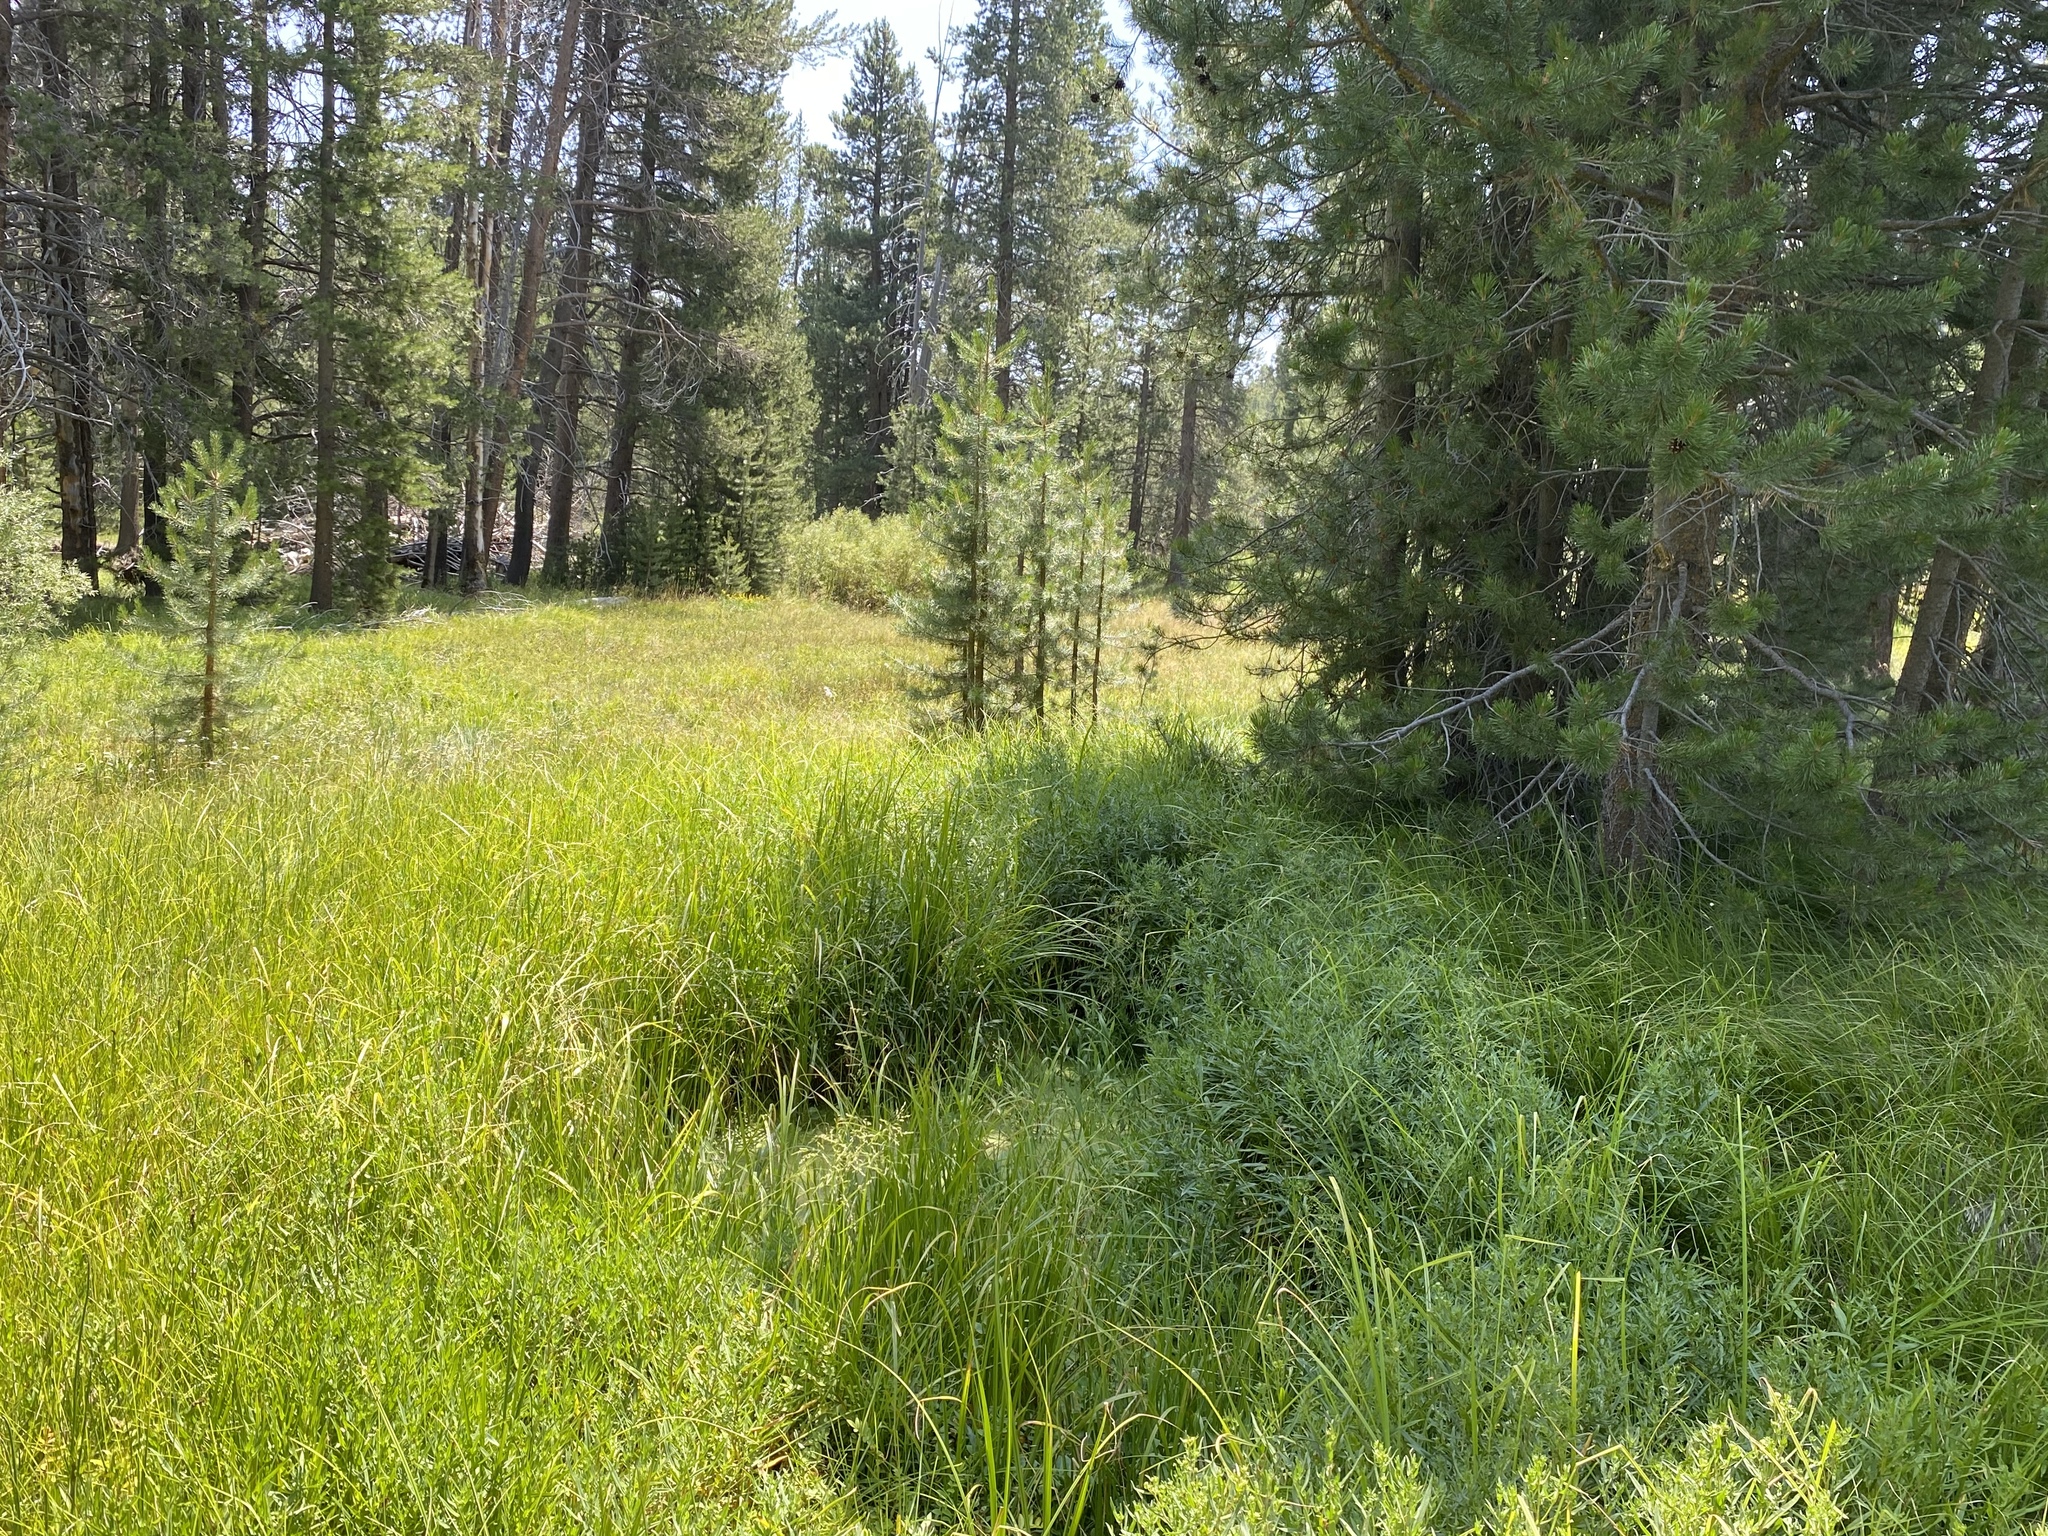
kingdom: Plantae
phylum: Tracheophyta
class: Liliopsida
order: Poales
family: Cyperaceae
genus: Carex
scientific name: Carex capitata
